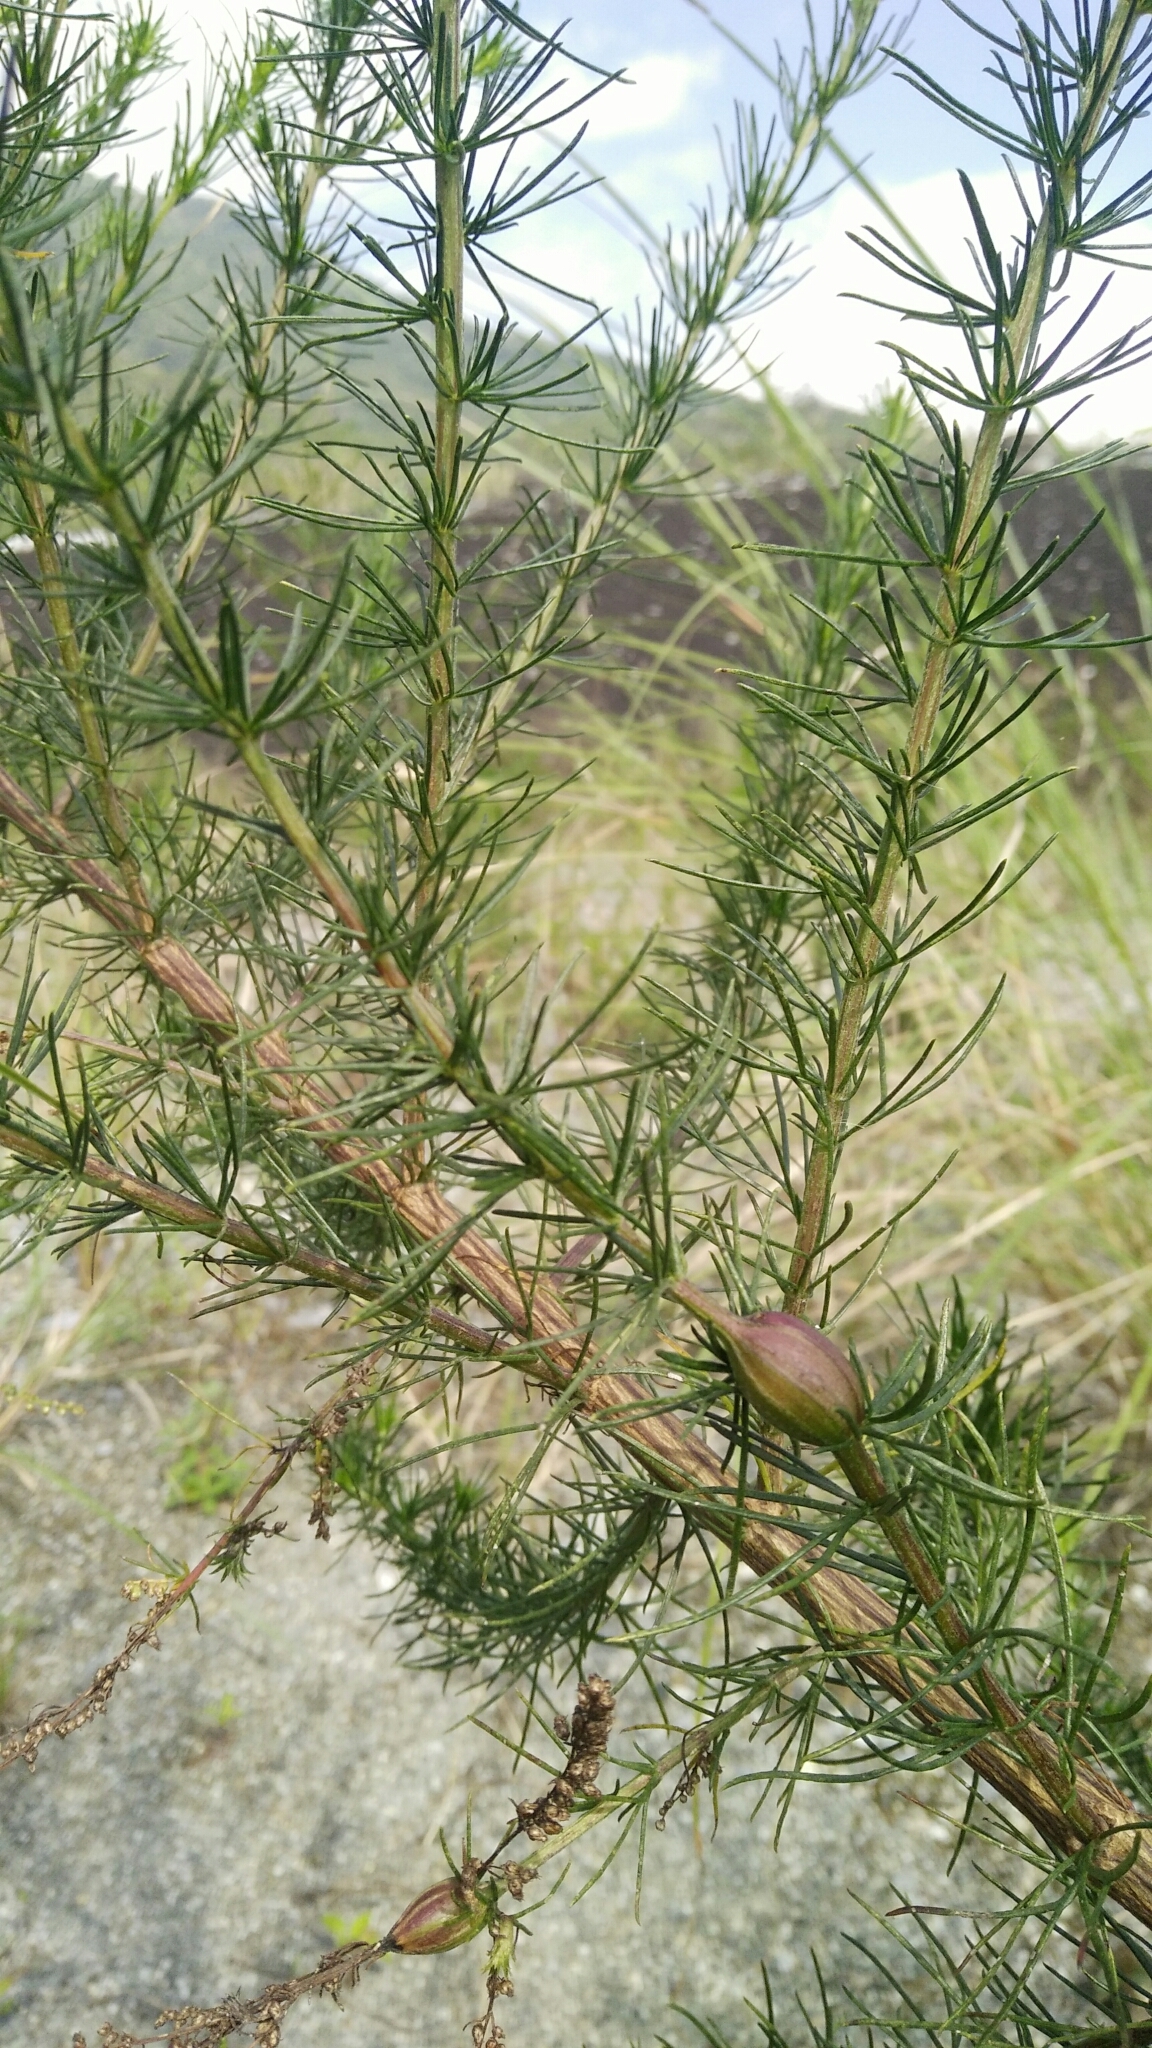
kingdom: Plantae
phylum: Tracheophyta
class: Magnoliopsida
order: Asterales
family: Asteraceae
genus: Artemisia
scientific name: Artemisia capillaris
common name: Yin-chen wormwood
